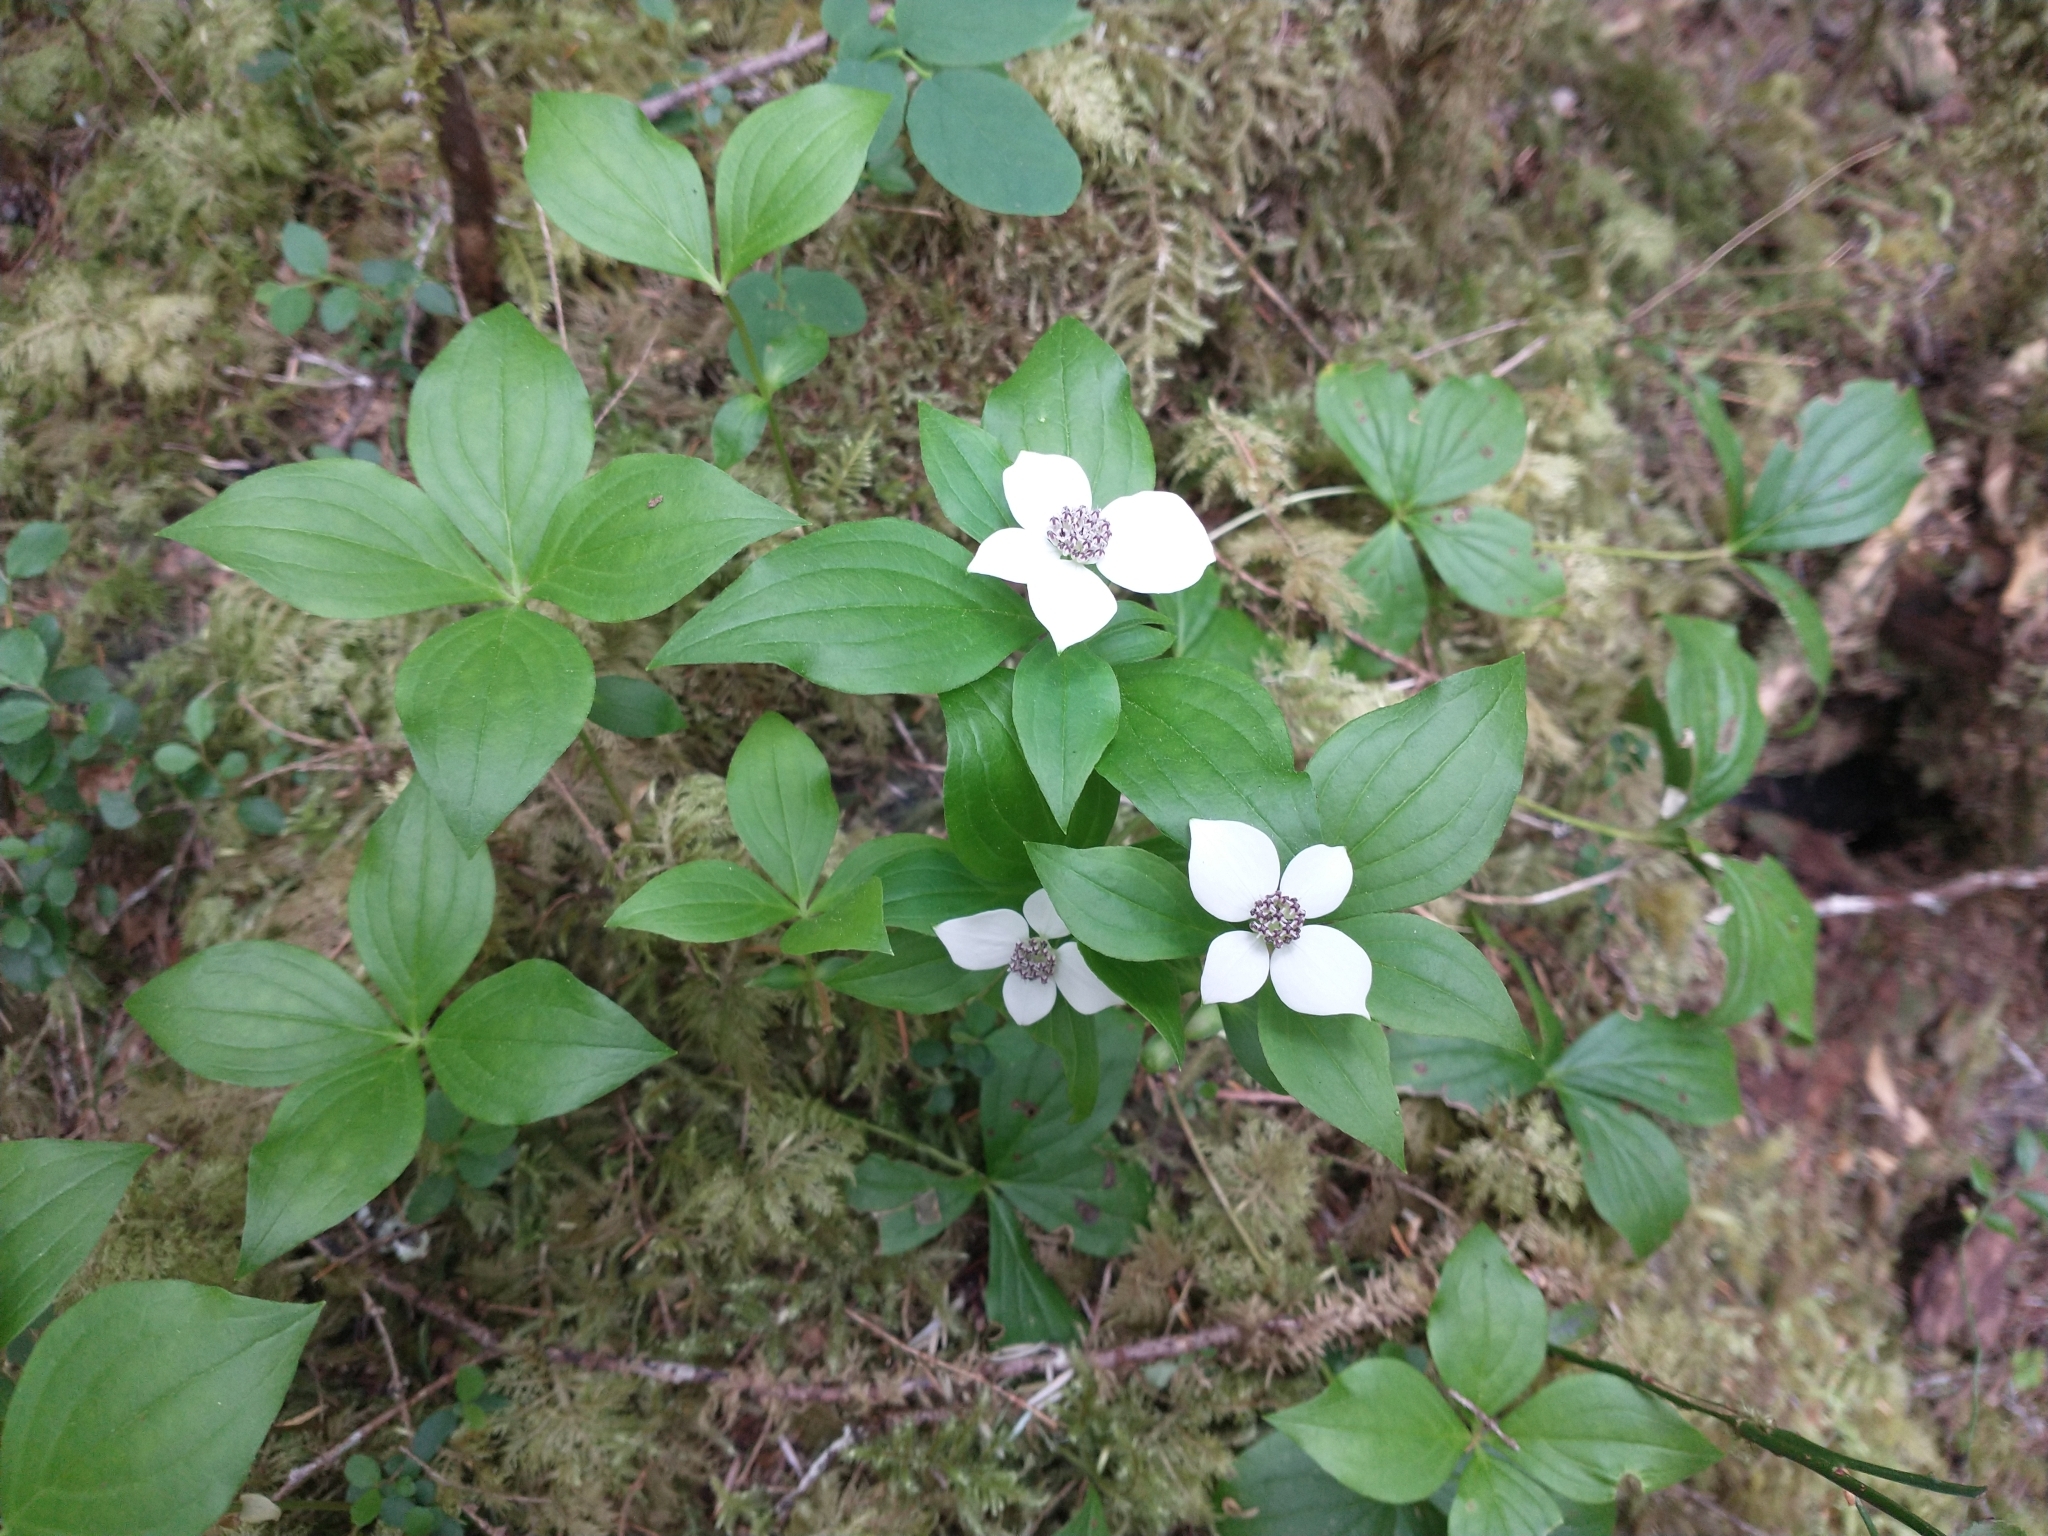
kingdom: Plantae
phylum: Tracheophyta
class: Magnoliopsida
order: Cornales
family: Cornaceae
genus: Cornus
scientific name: Cornus unalaschkensis
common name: Alaska bunchberry
